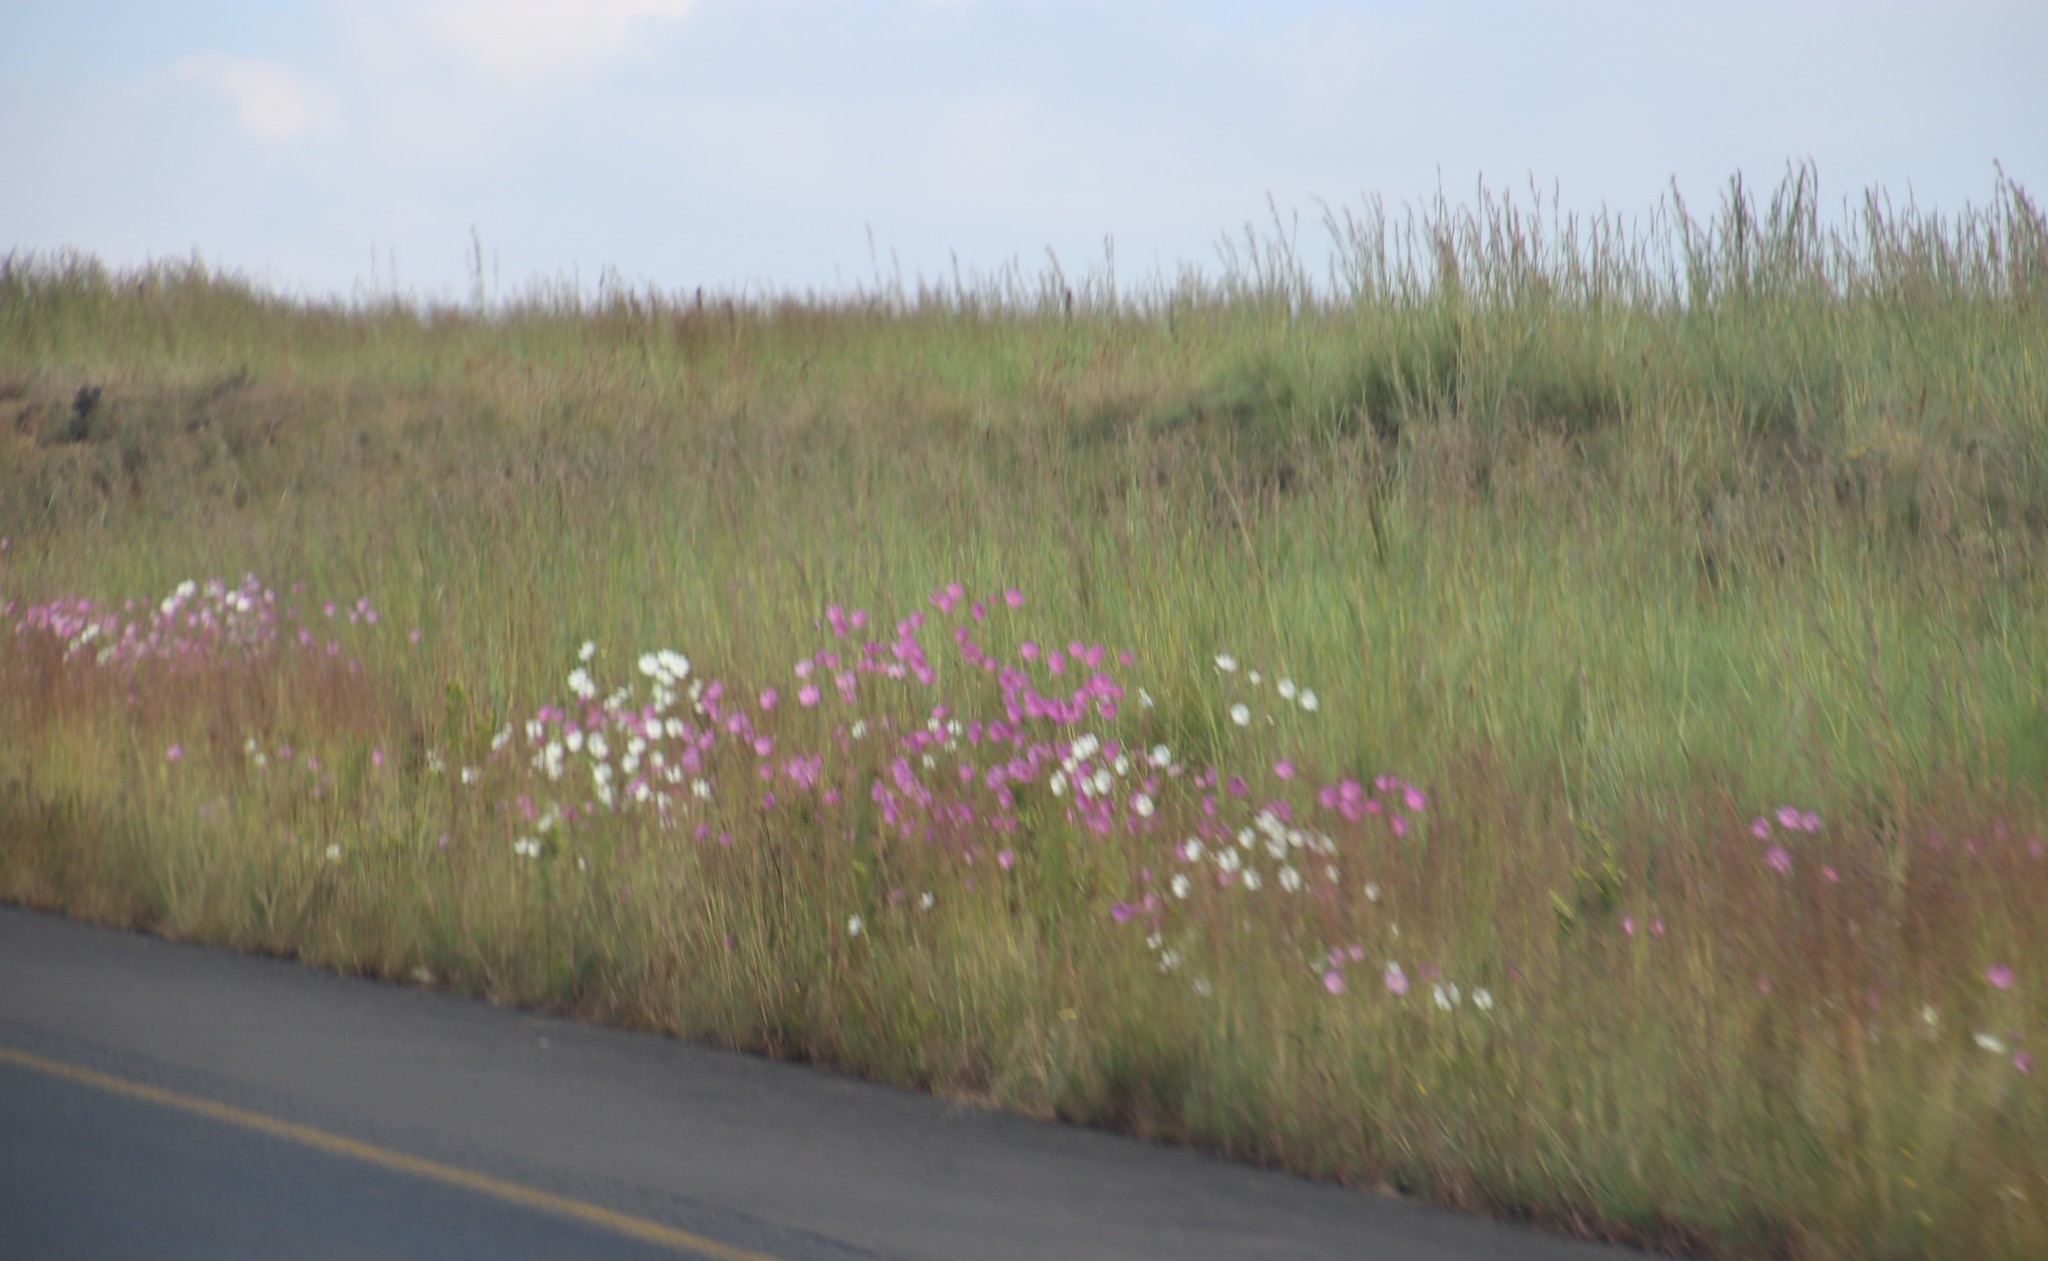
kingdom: Plantae
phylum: Tracheophyta
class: Magnoliopsida
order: Asterales
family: Asteraceae
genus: Cosmos
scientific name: Cosmos bipinnatus
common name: Garden cosmos
